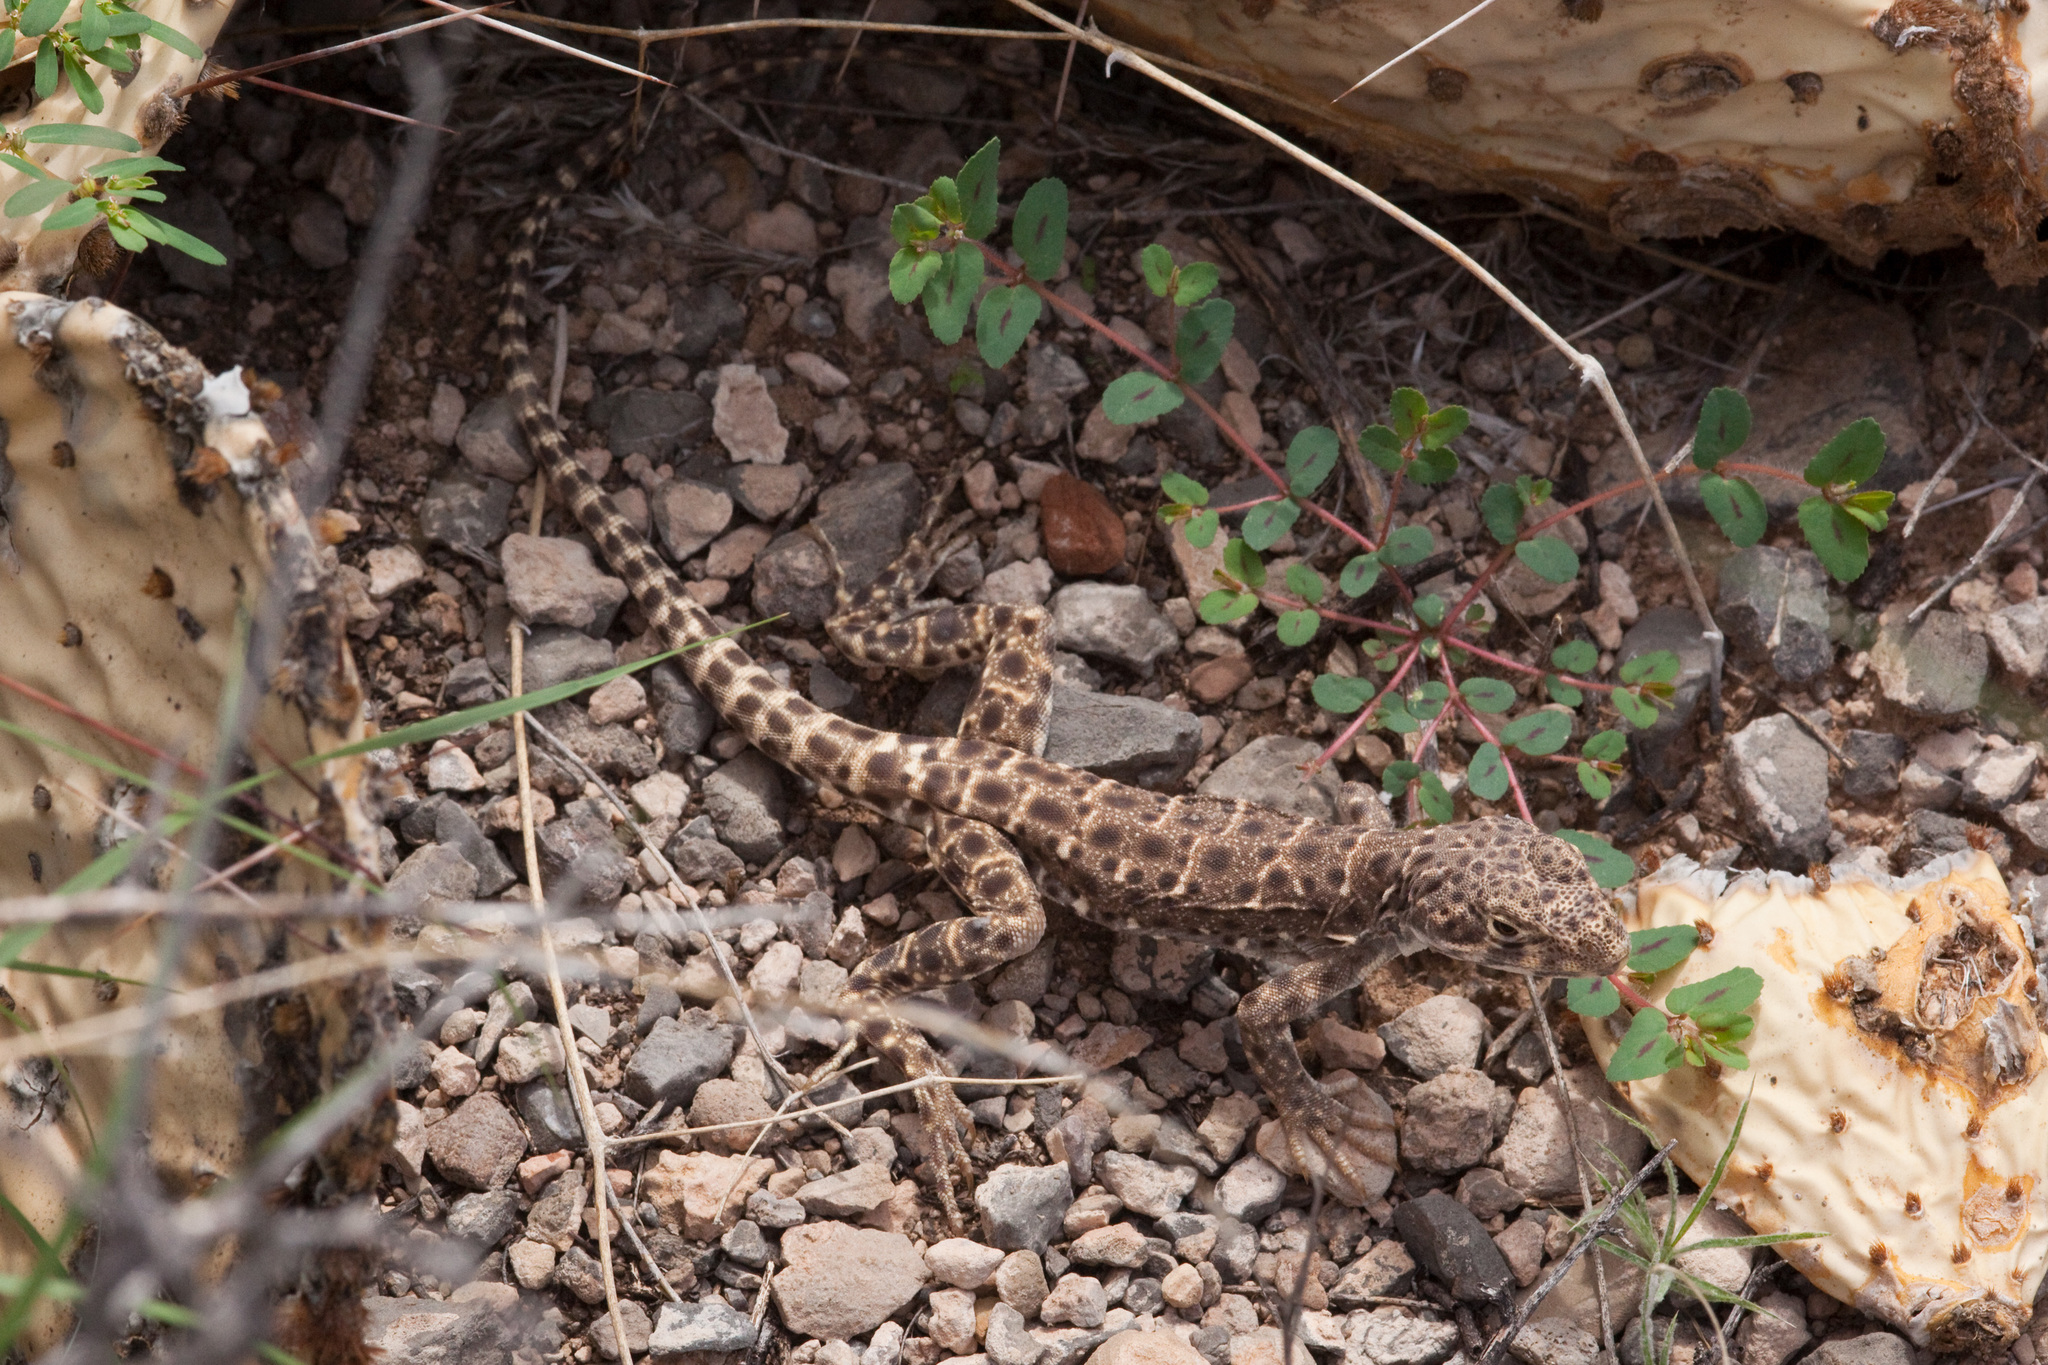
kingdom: Animalia
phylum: Chordata
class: Squamata
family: Crotaphytidae
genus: Gambelia
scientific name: Gambelia wislizenii
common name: Longnose leopard lizard
